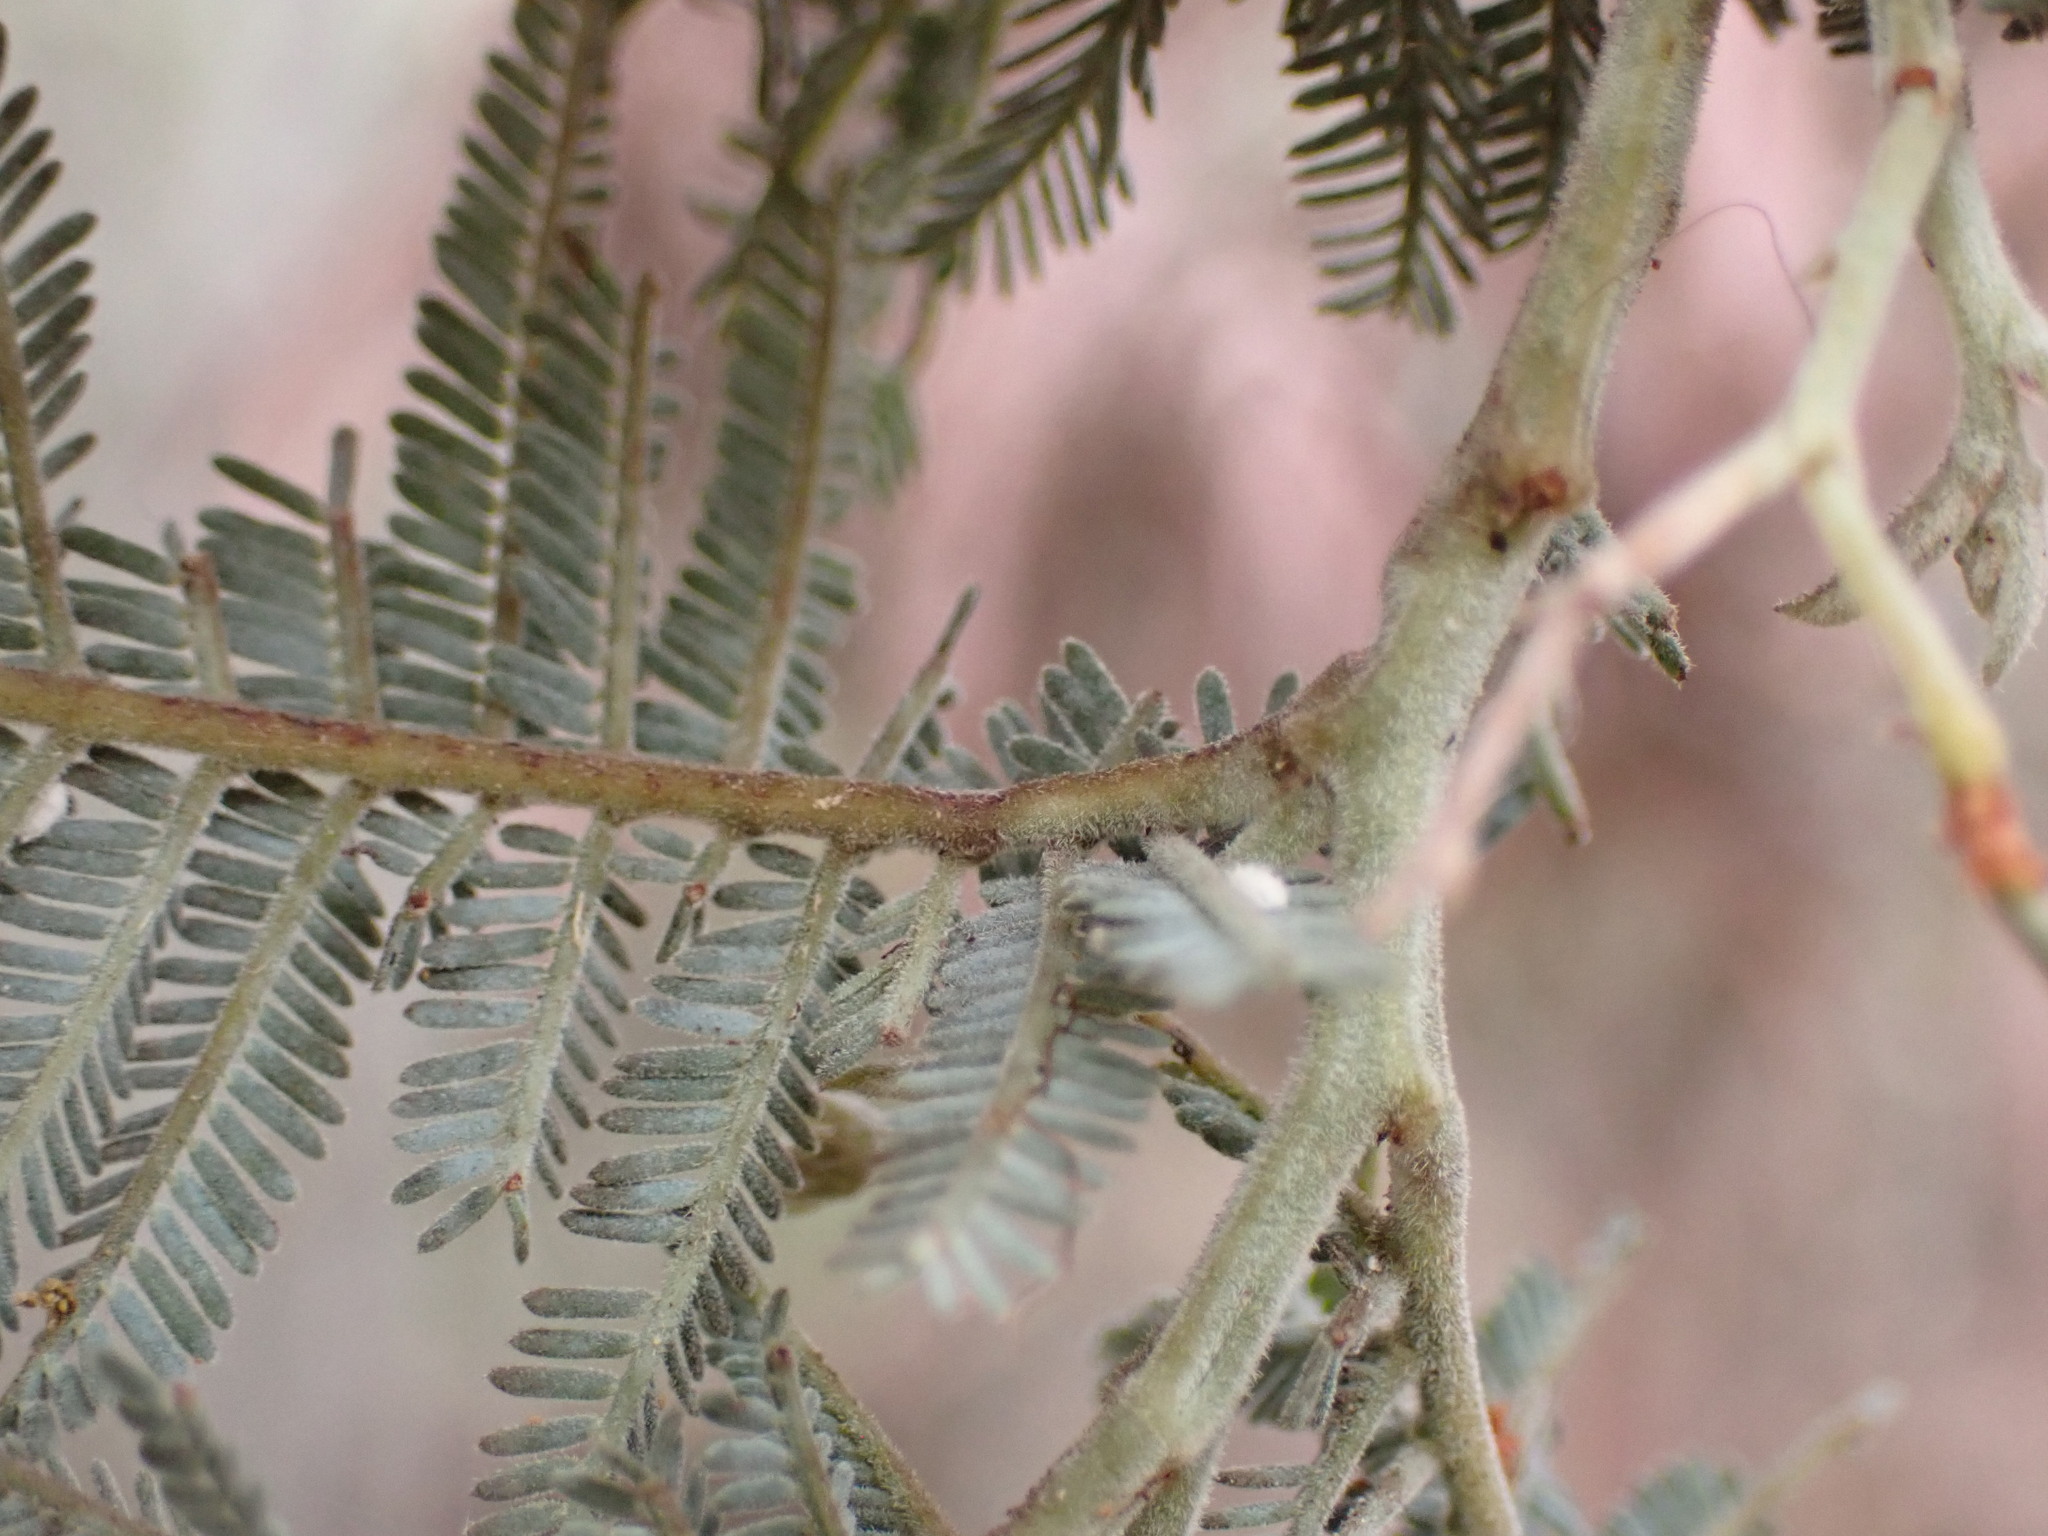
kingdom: Plantae
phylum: Tracheophyta
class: Magnoliopsida
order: Fabales
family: Fabaceae
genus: Acacia
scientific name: Acacia dealbata
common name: Silver wattle
